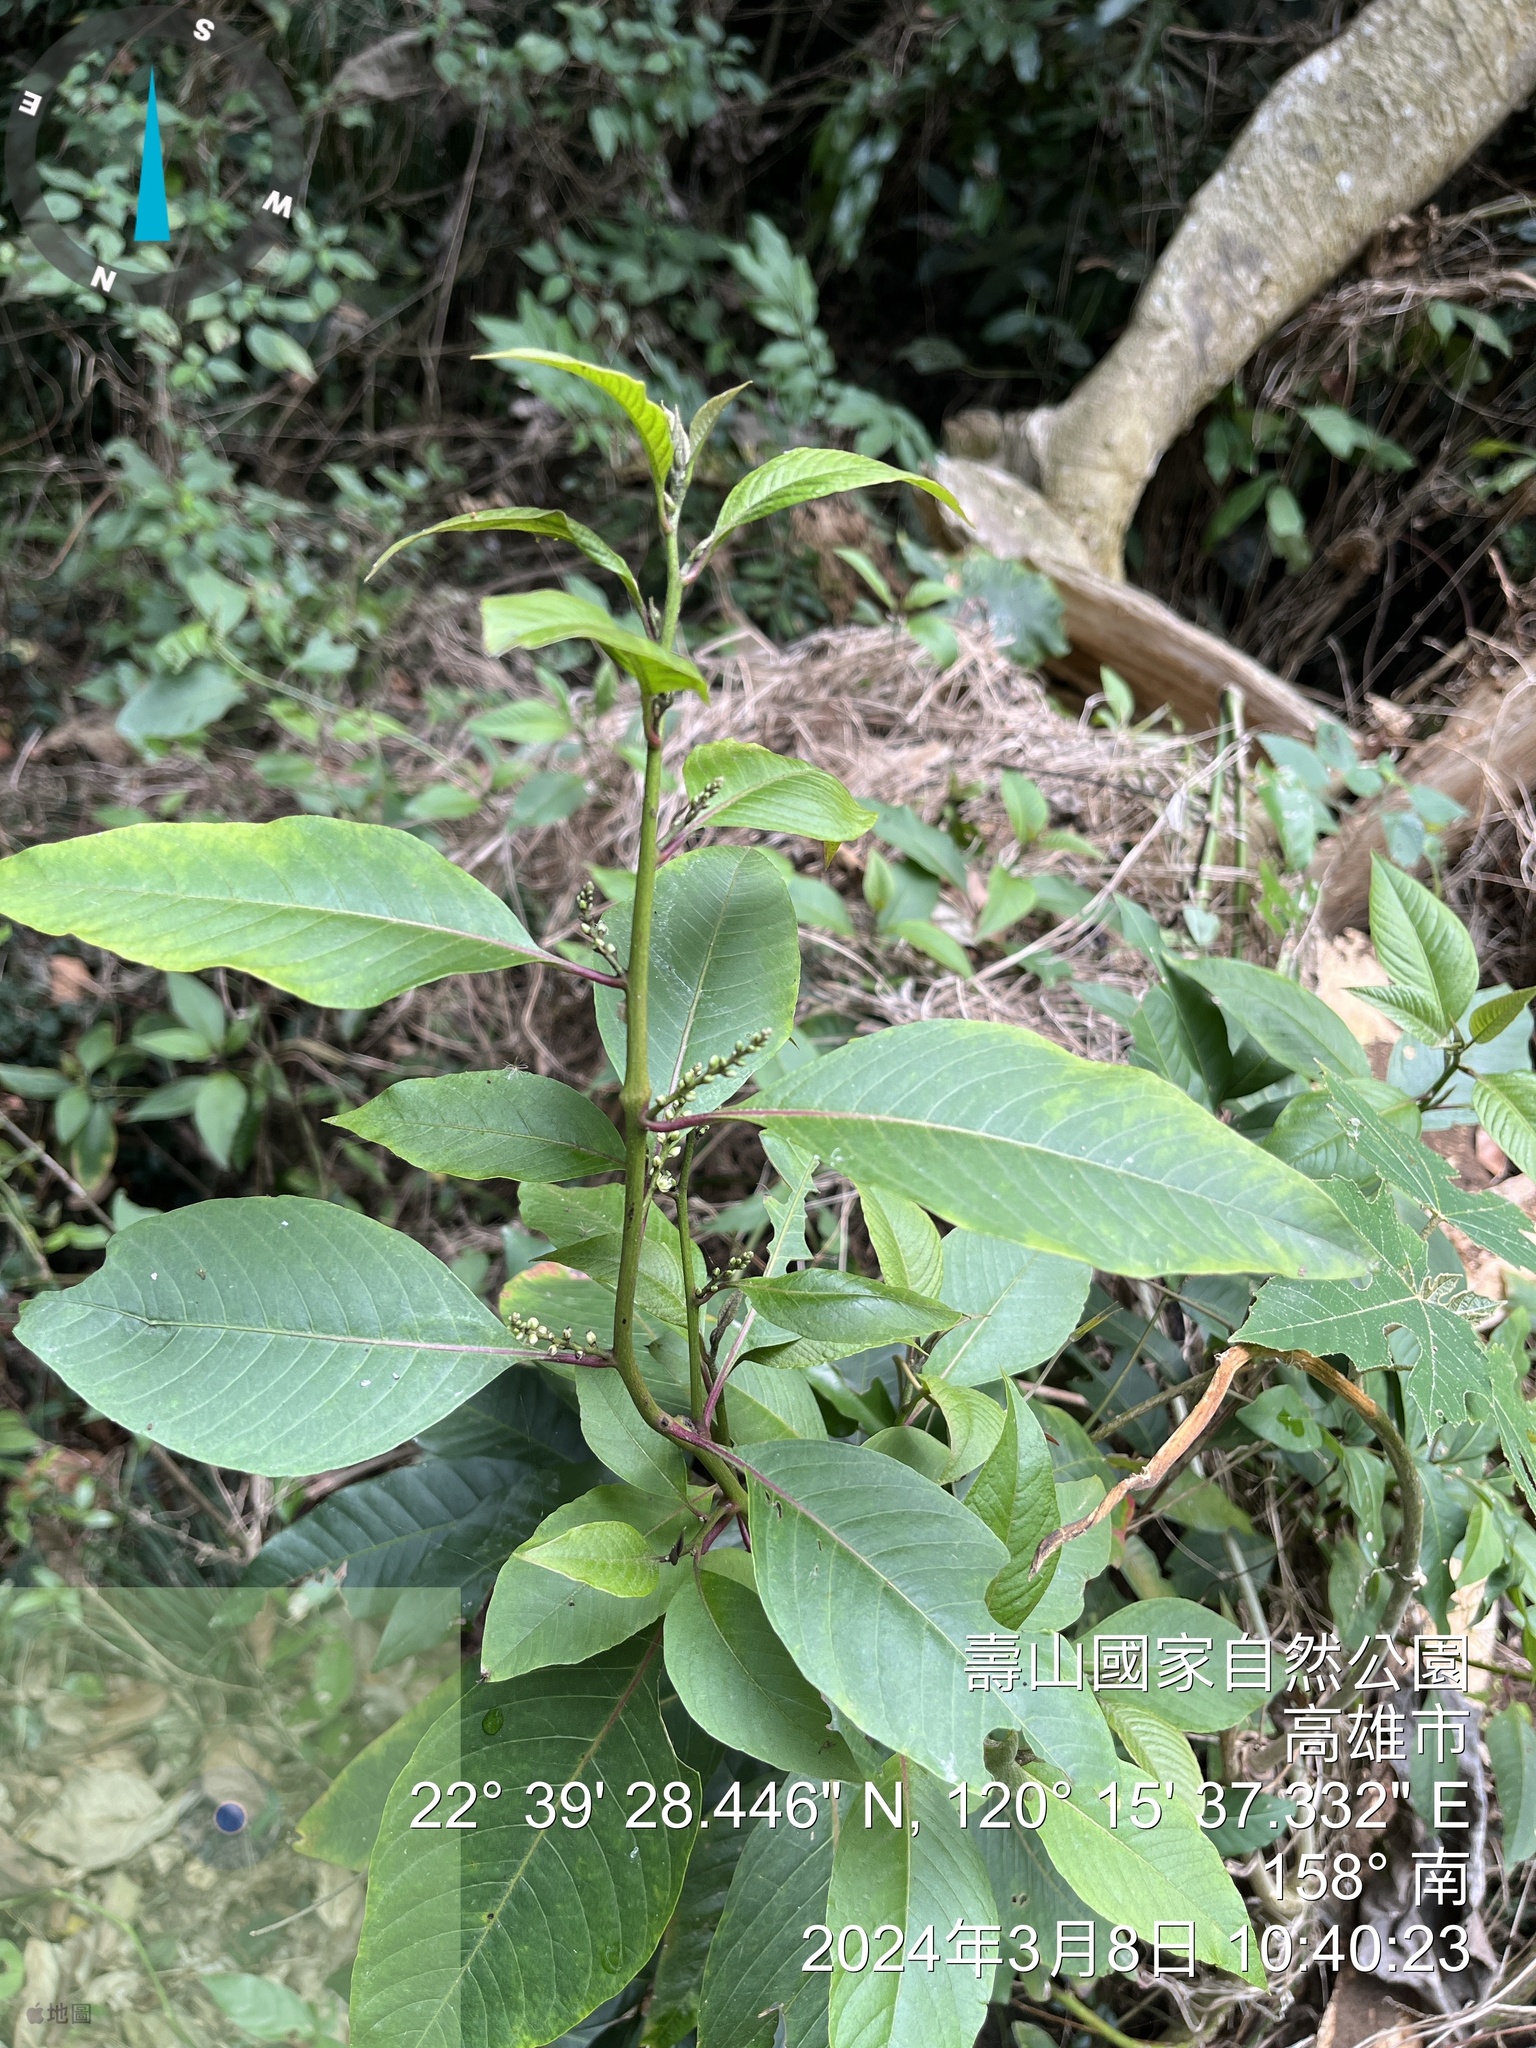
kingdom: Plantae
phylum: Tracheophyta
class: Magnoliopsida
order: Caryophyllales
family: Amaranthaceae
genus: Deeringia
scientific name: Deeringia polysperma
